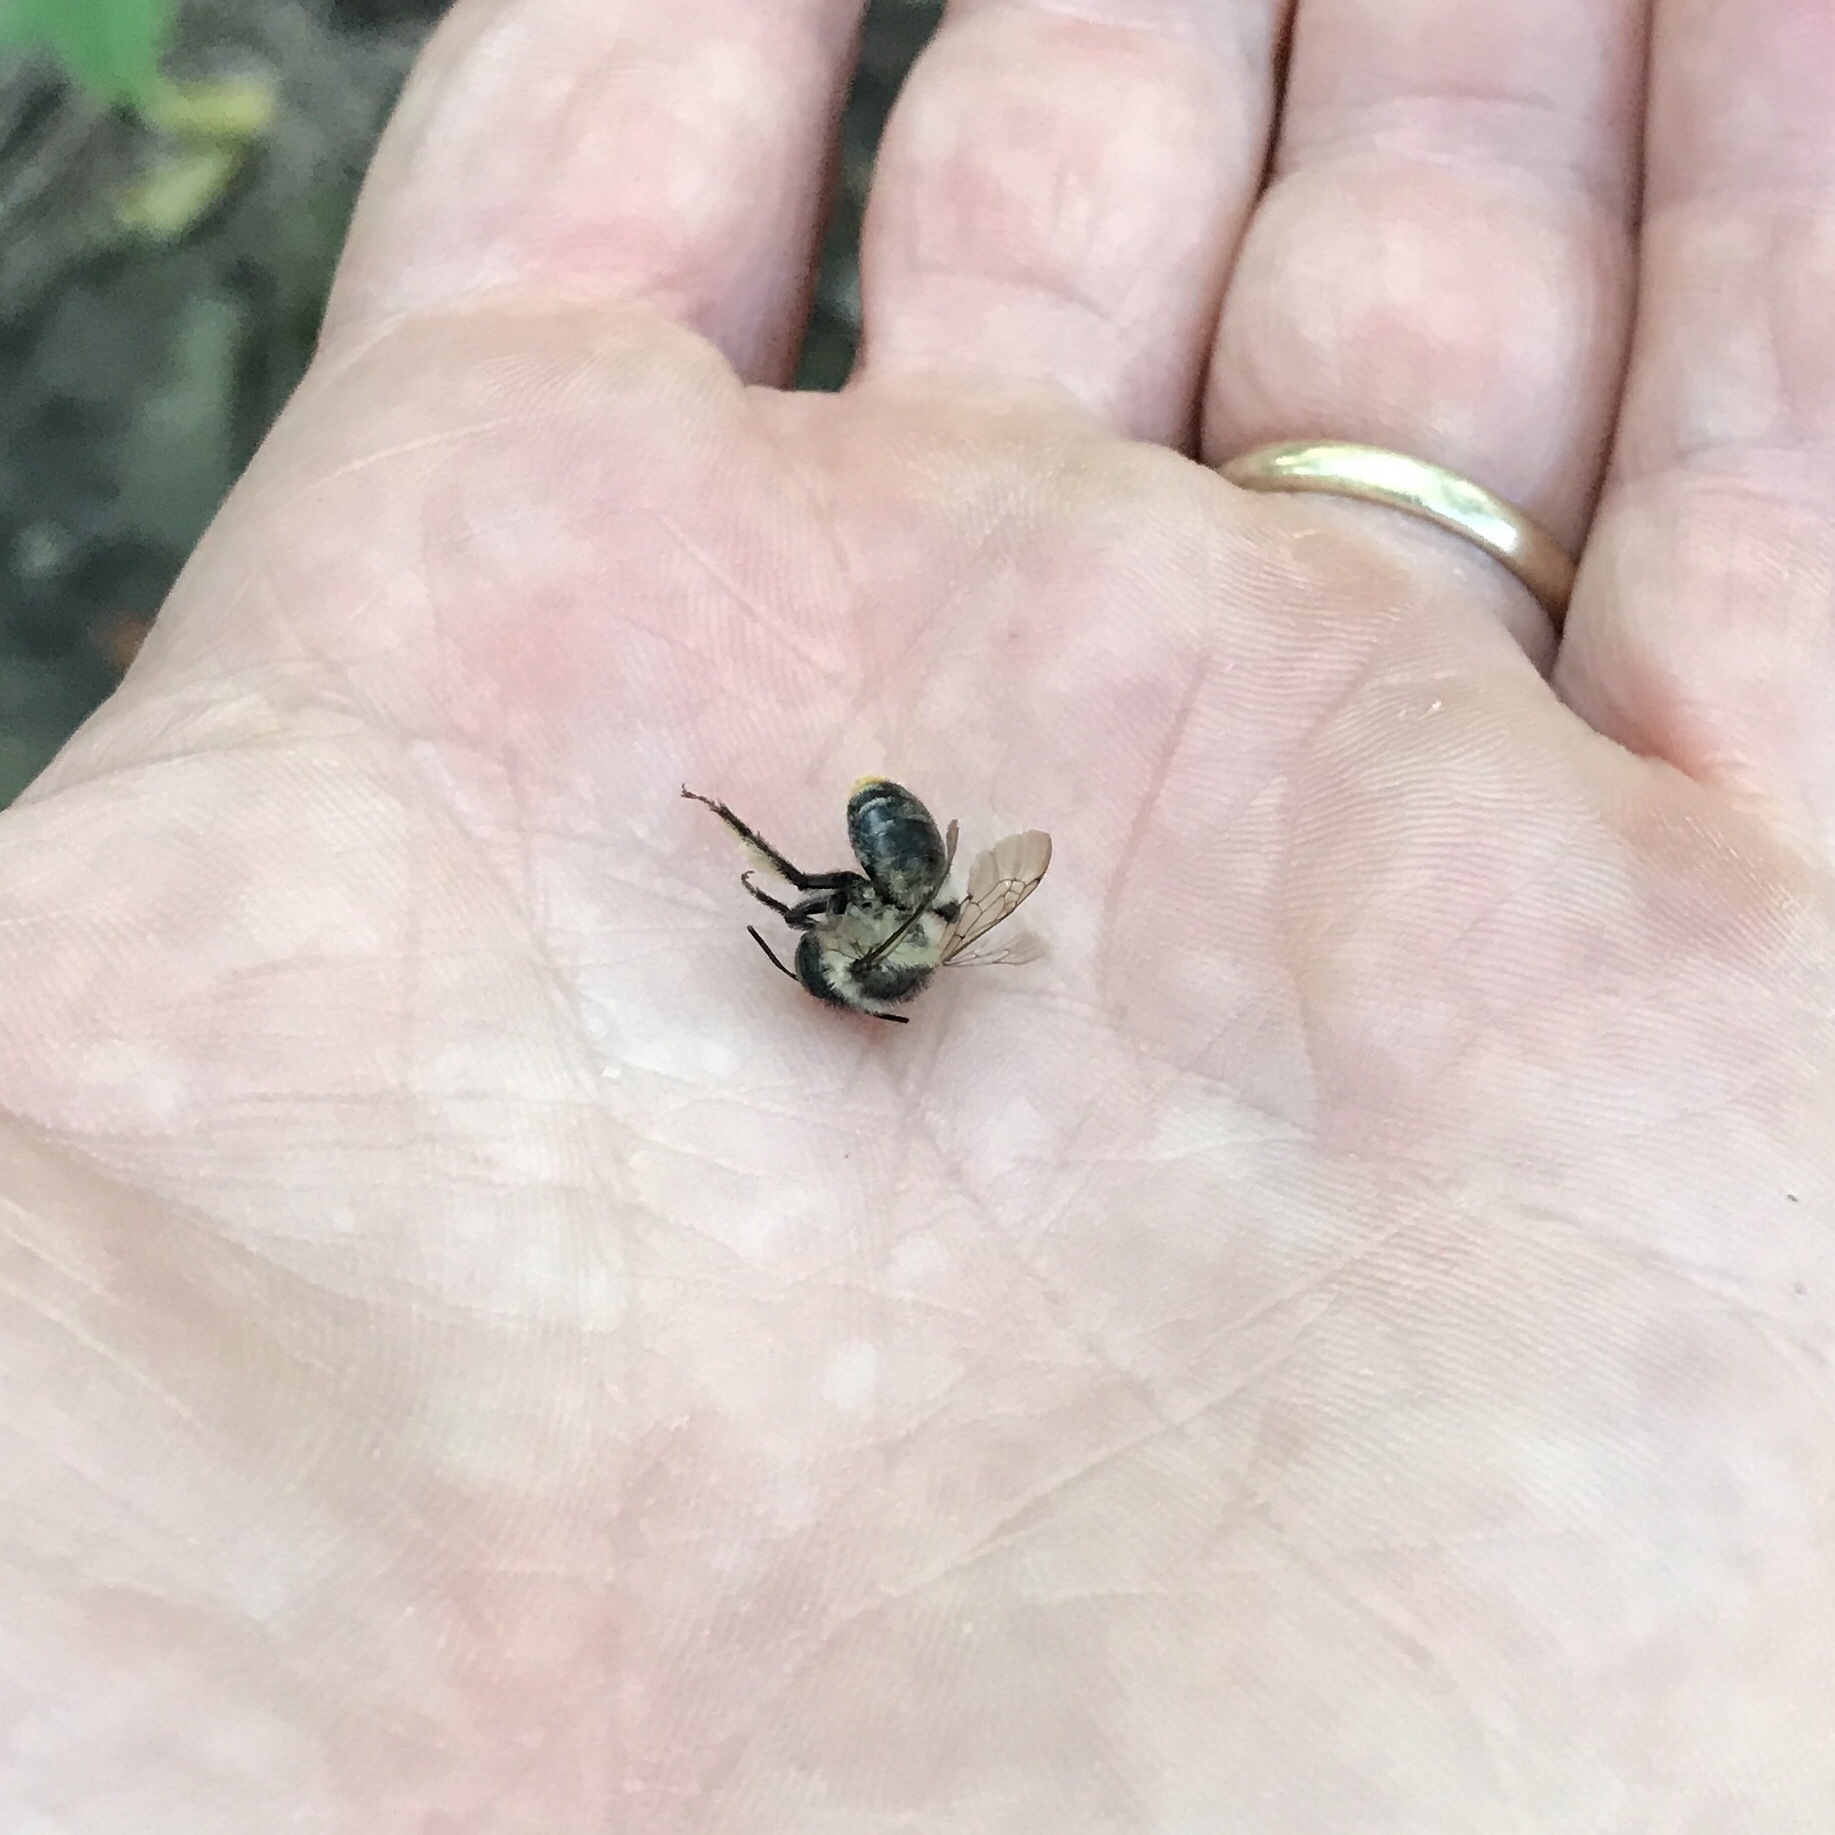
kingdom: Animalia
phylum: Arthropoda
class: Insecta
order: Hymenoptera
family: Apidae
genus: Anthophora
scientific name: Anthophora terminalis
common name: Orange-tipped wood-digger bee
